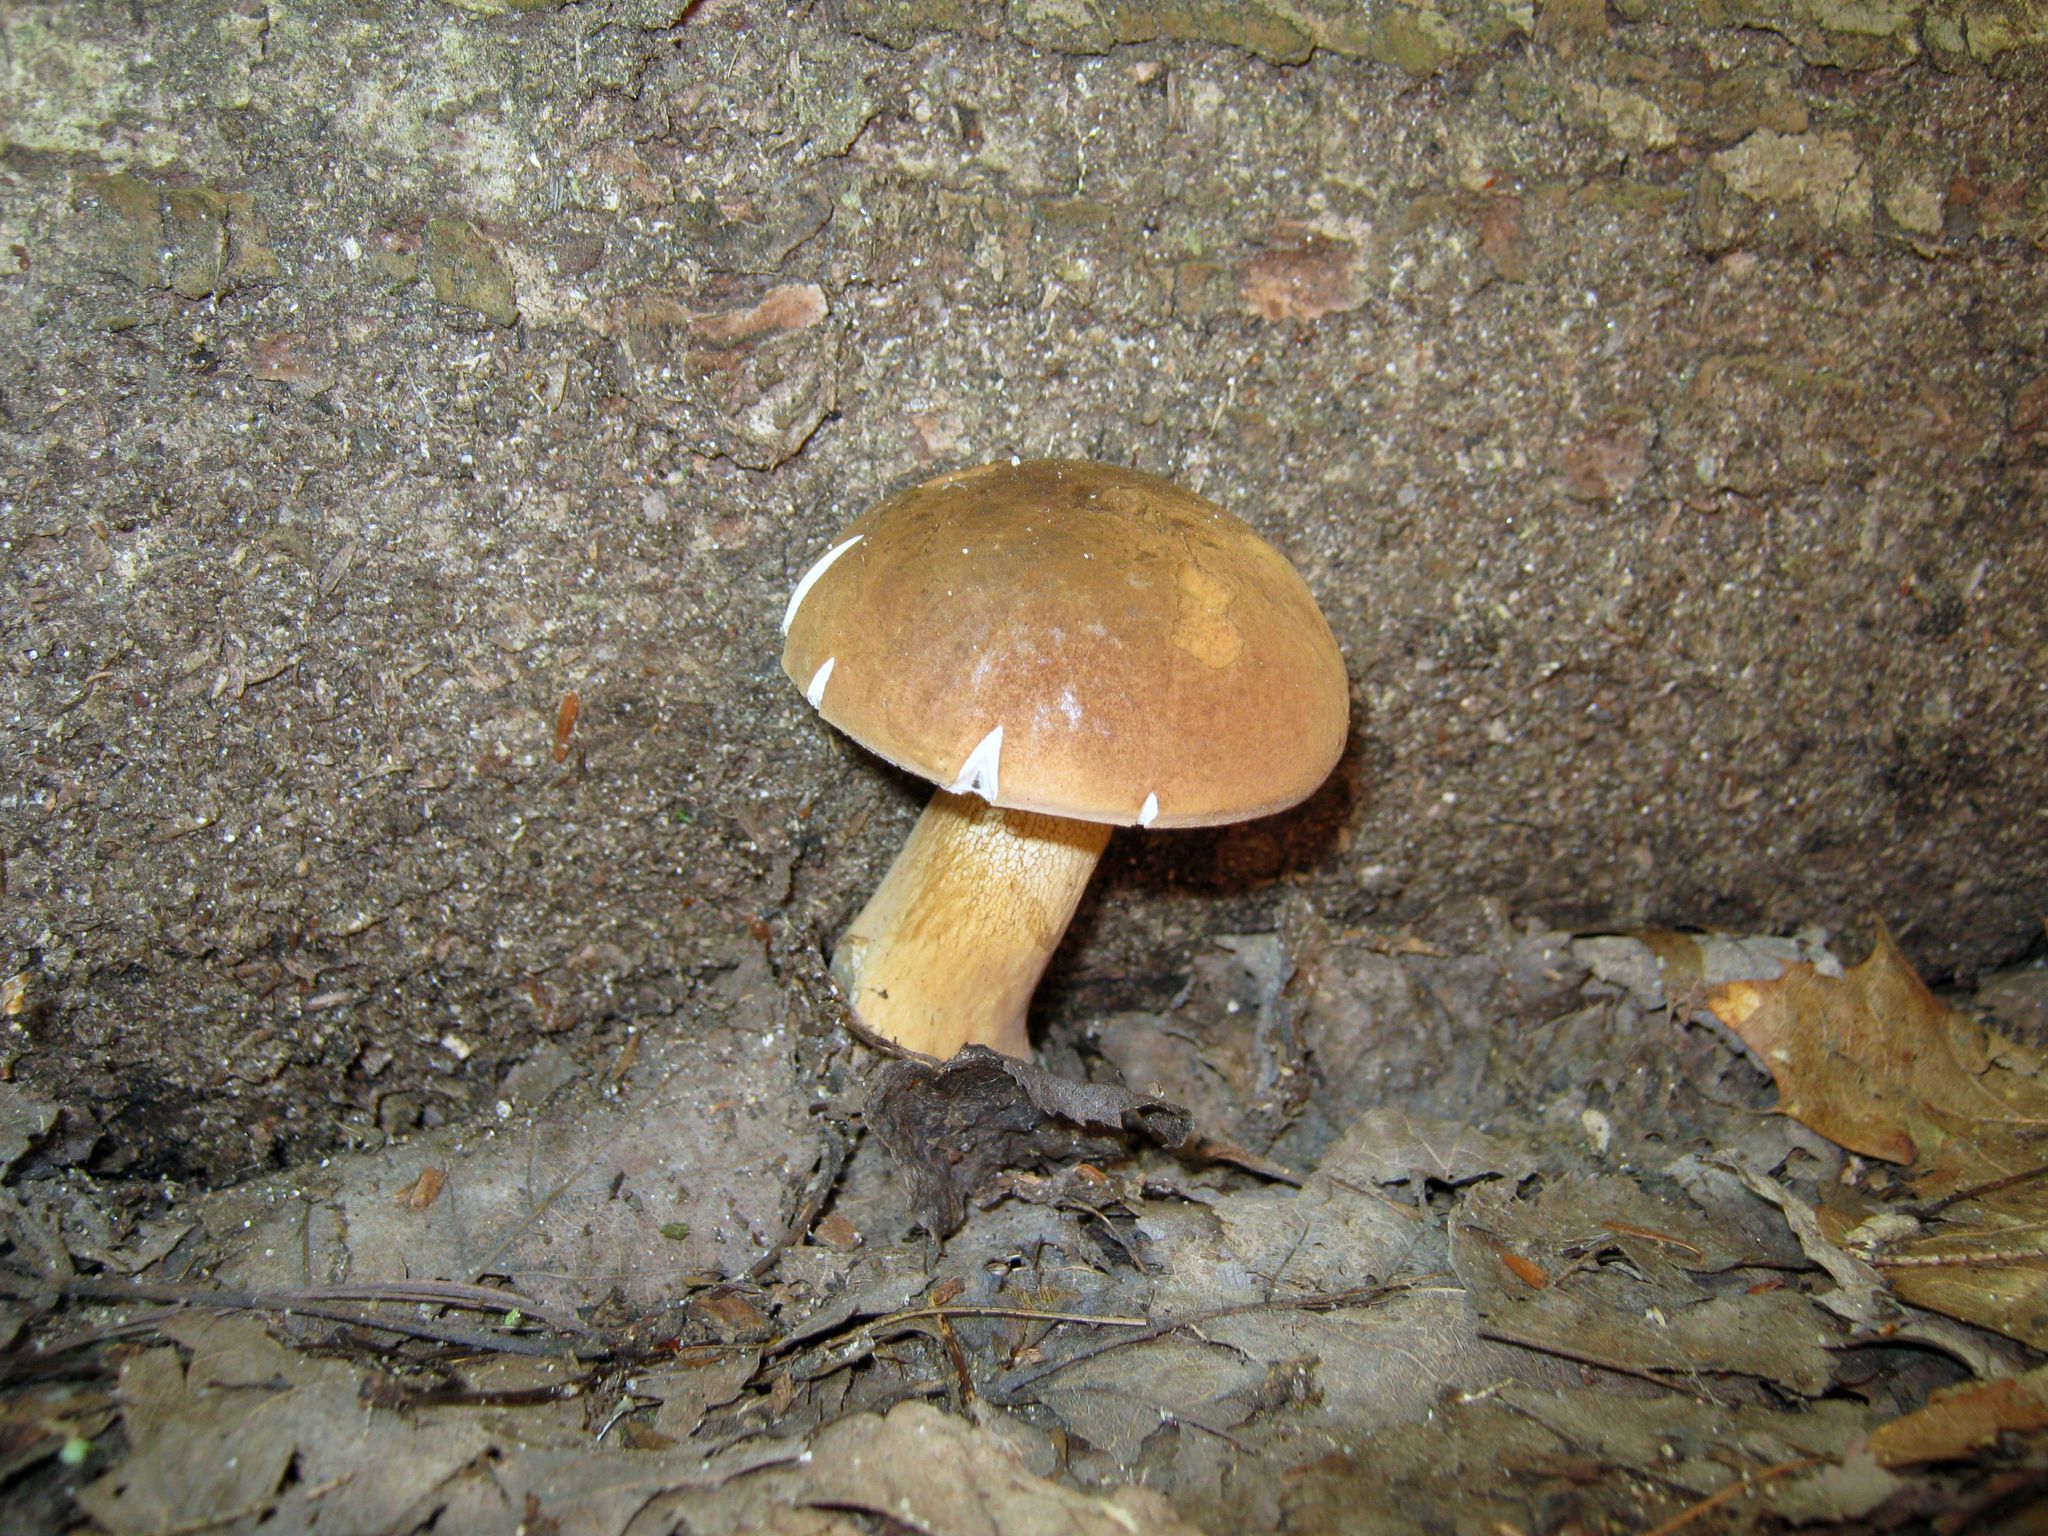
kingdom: Fungi
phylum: Basidiomycota
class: Agaricomycetes
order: Boletales
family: Boletaceae
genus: Tylopilus
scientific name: Tylopilus felleus
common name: Bitter bolete
